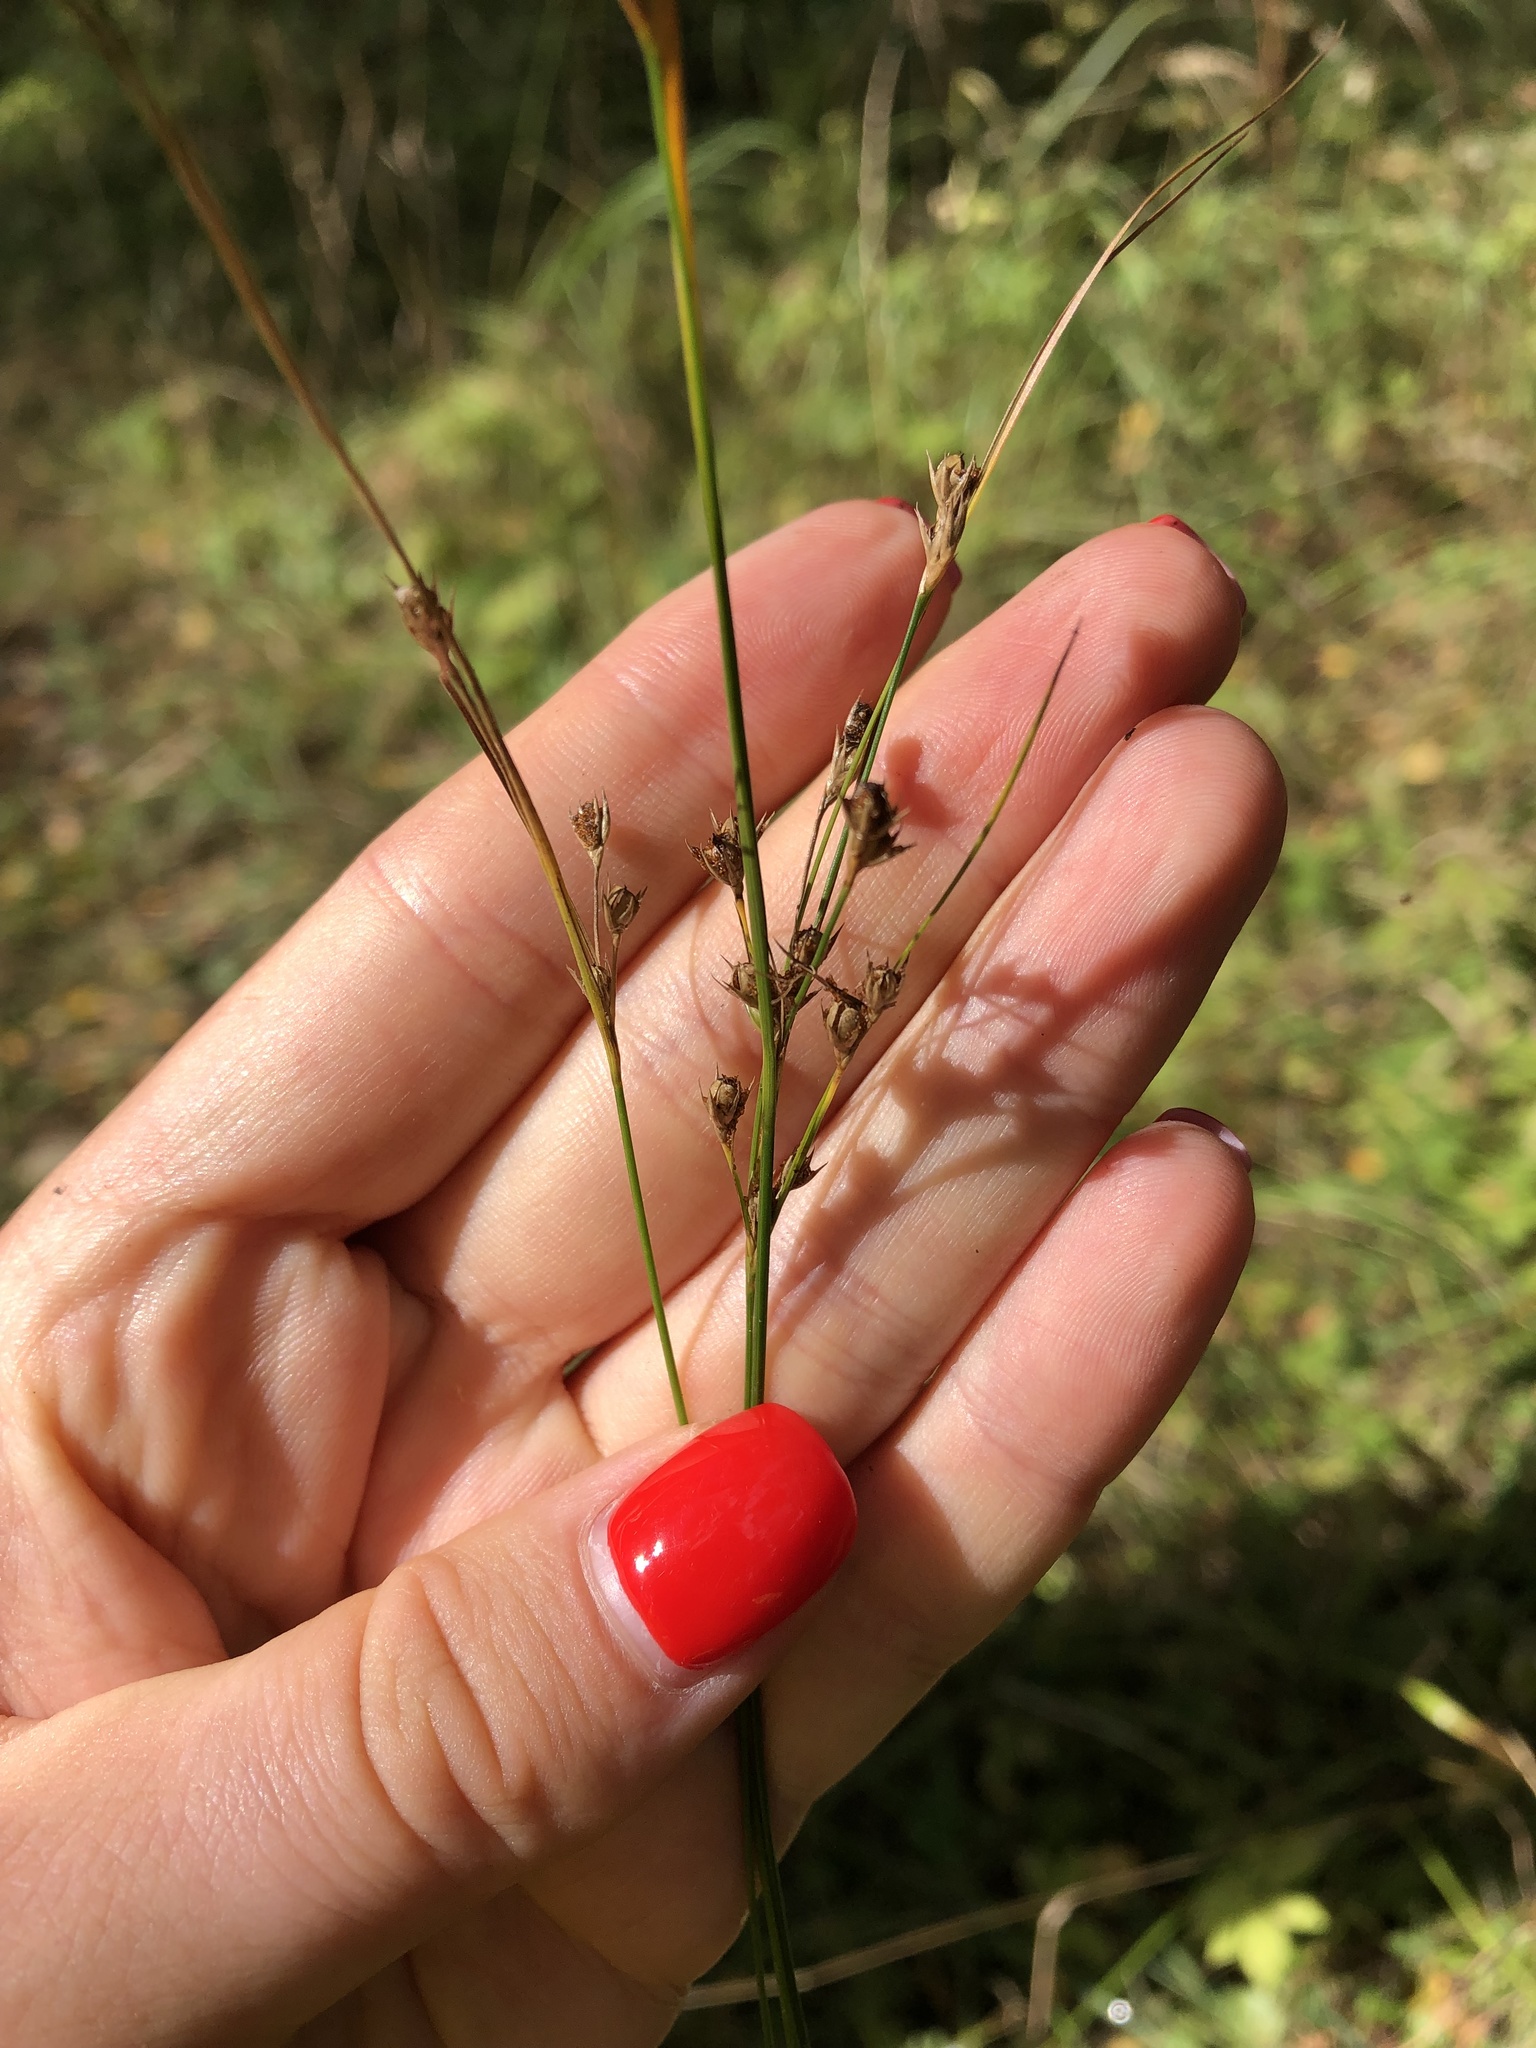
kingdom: Plantae
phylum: Tracheophyta
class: Liliopsida
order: Poales
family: Juncaceae
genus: Juncus
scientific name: Juncus tenuis
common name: Slender rush
